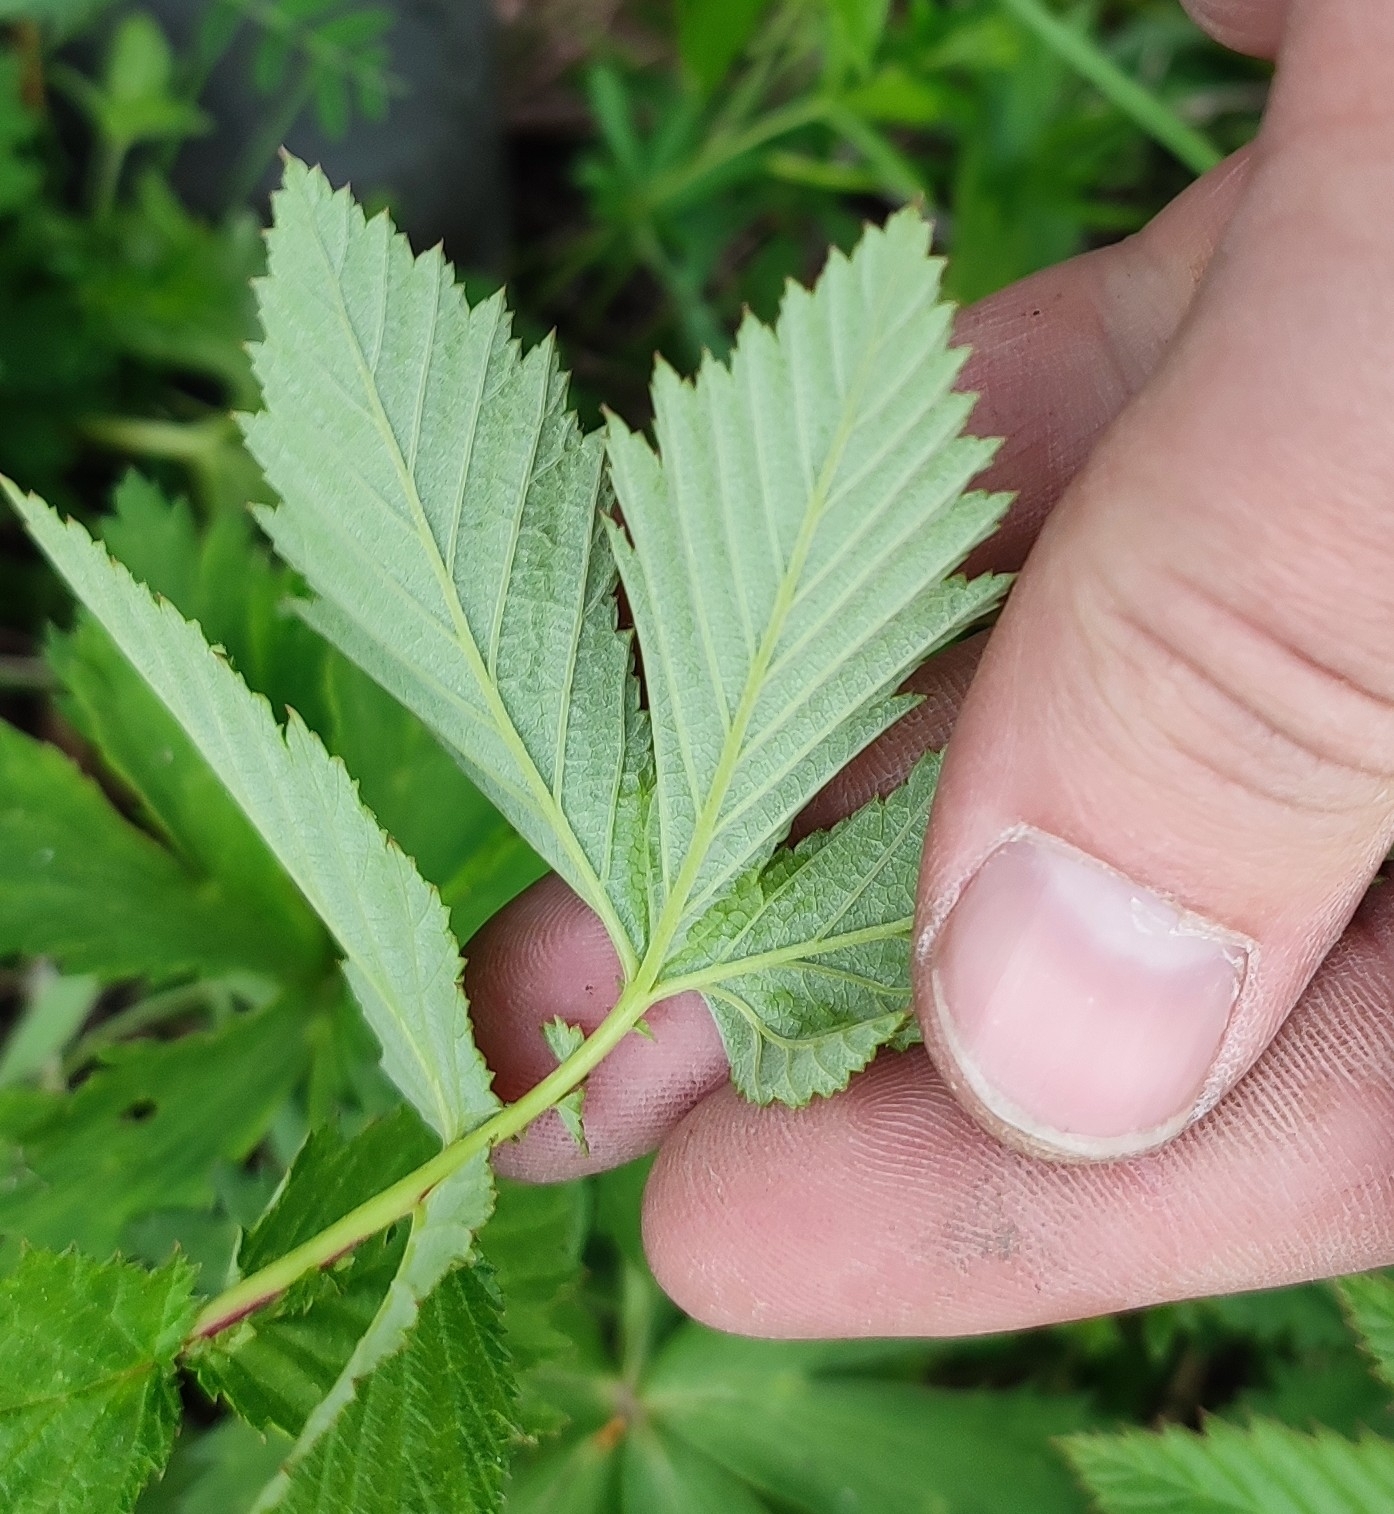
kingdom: Plantae
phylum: Tracheophyta
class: Magnoliopsida
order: Rosales
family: Rosaceae
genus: Filipendula
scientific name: Filipendula ulmaria
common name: Meadowsweet
